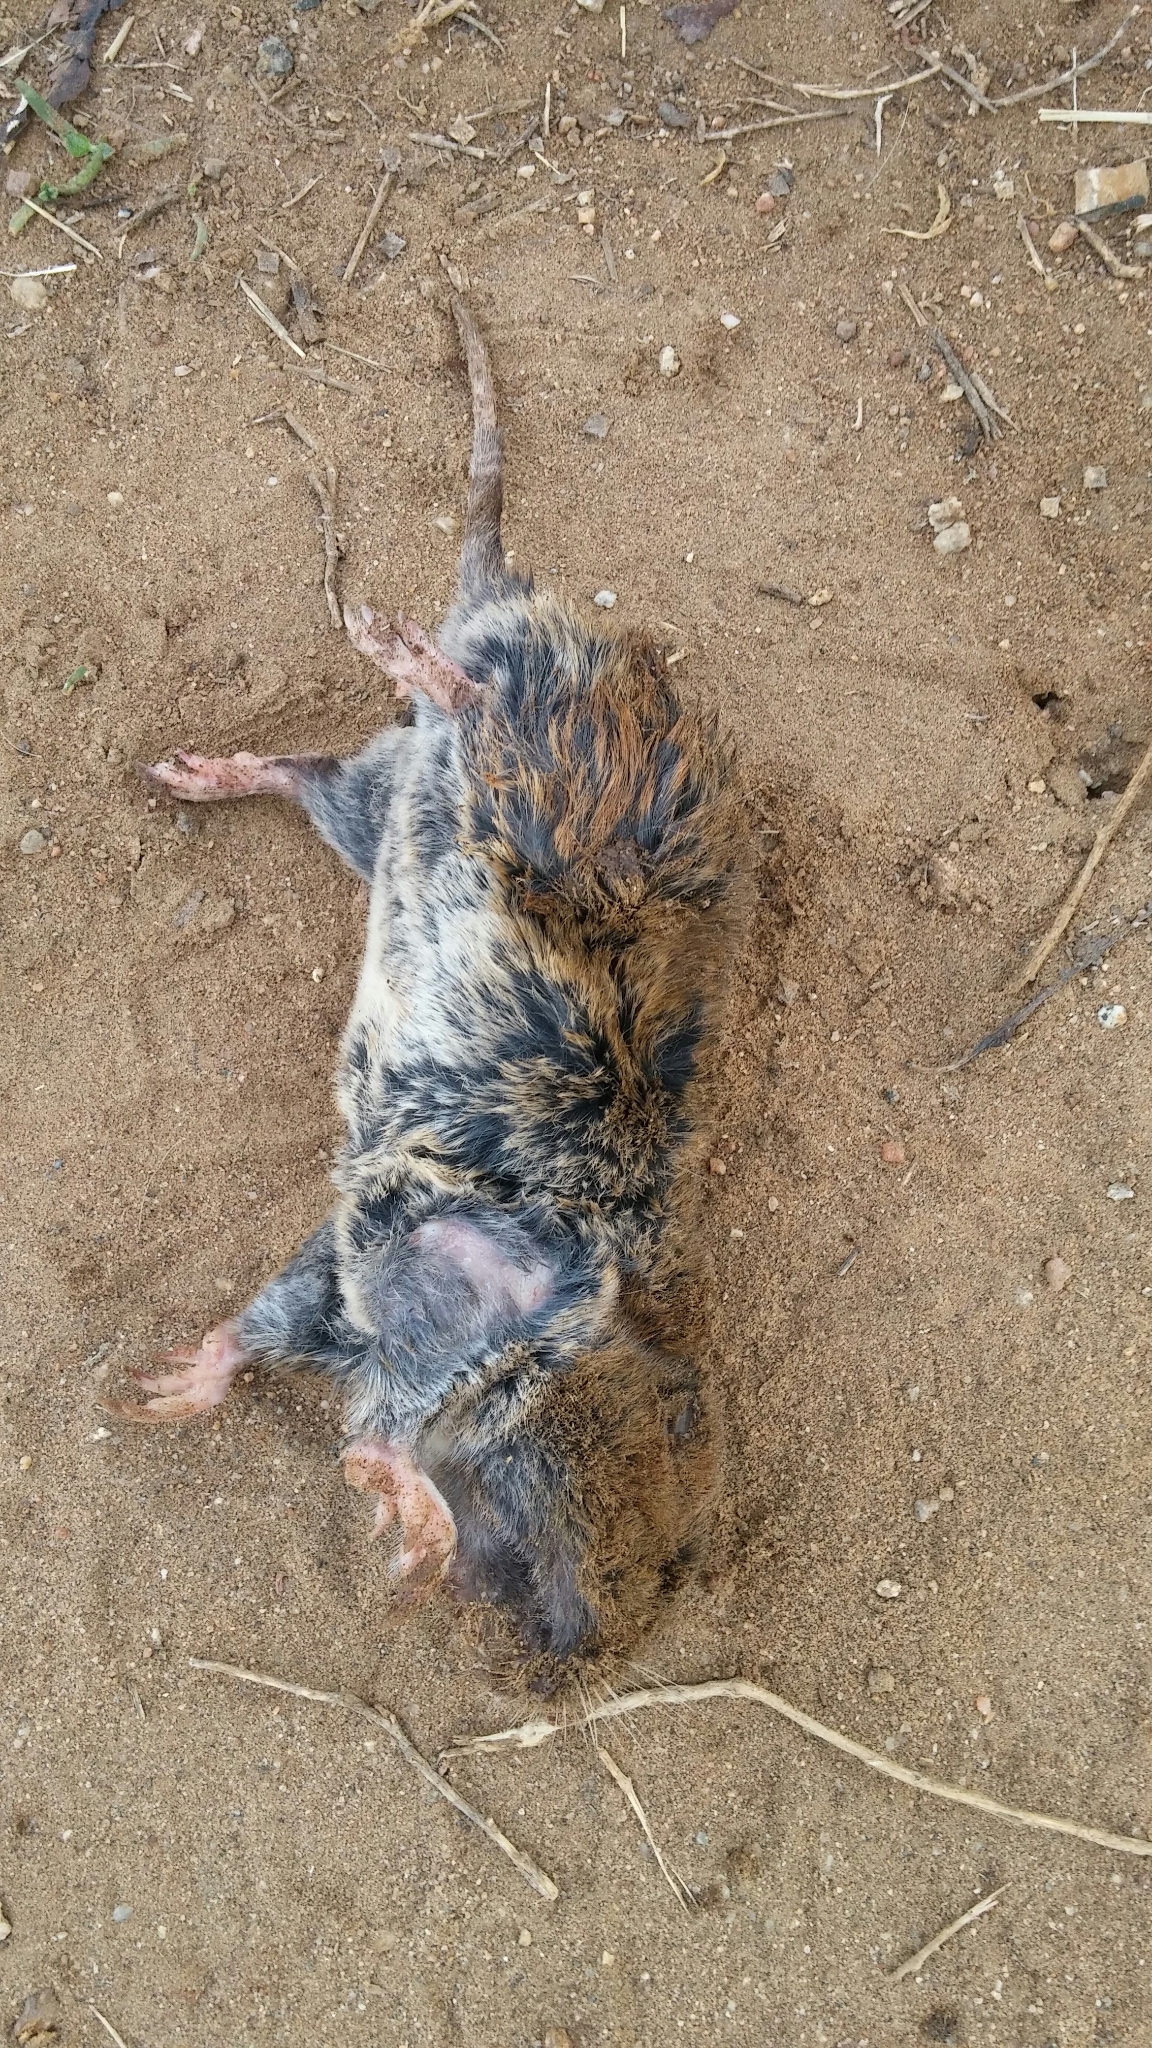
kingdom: Animalia
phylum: Chordata
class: Mammalia
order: Rodentia
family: Geomyidae
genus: Thomomys
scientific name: Thomomys bottae
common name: Botta's pocket gopher
